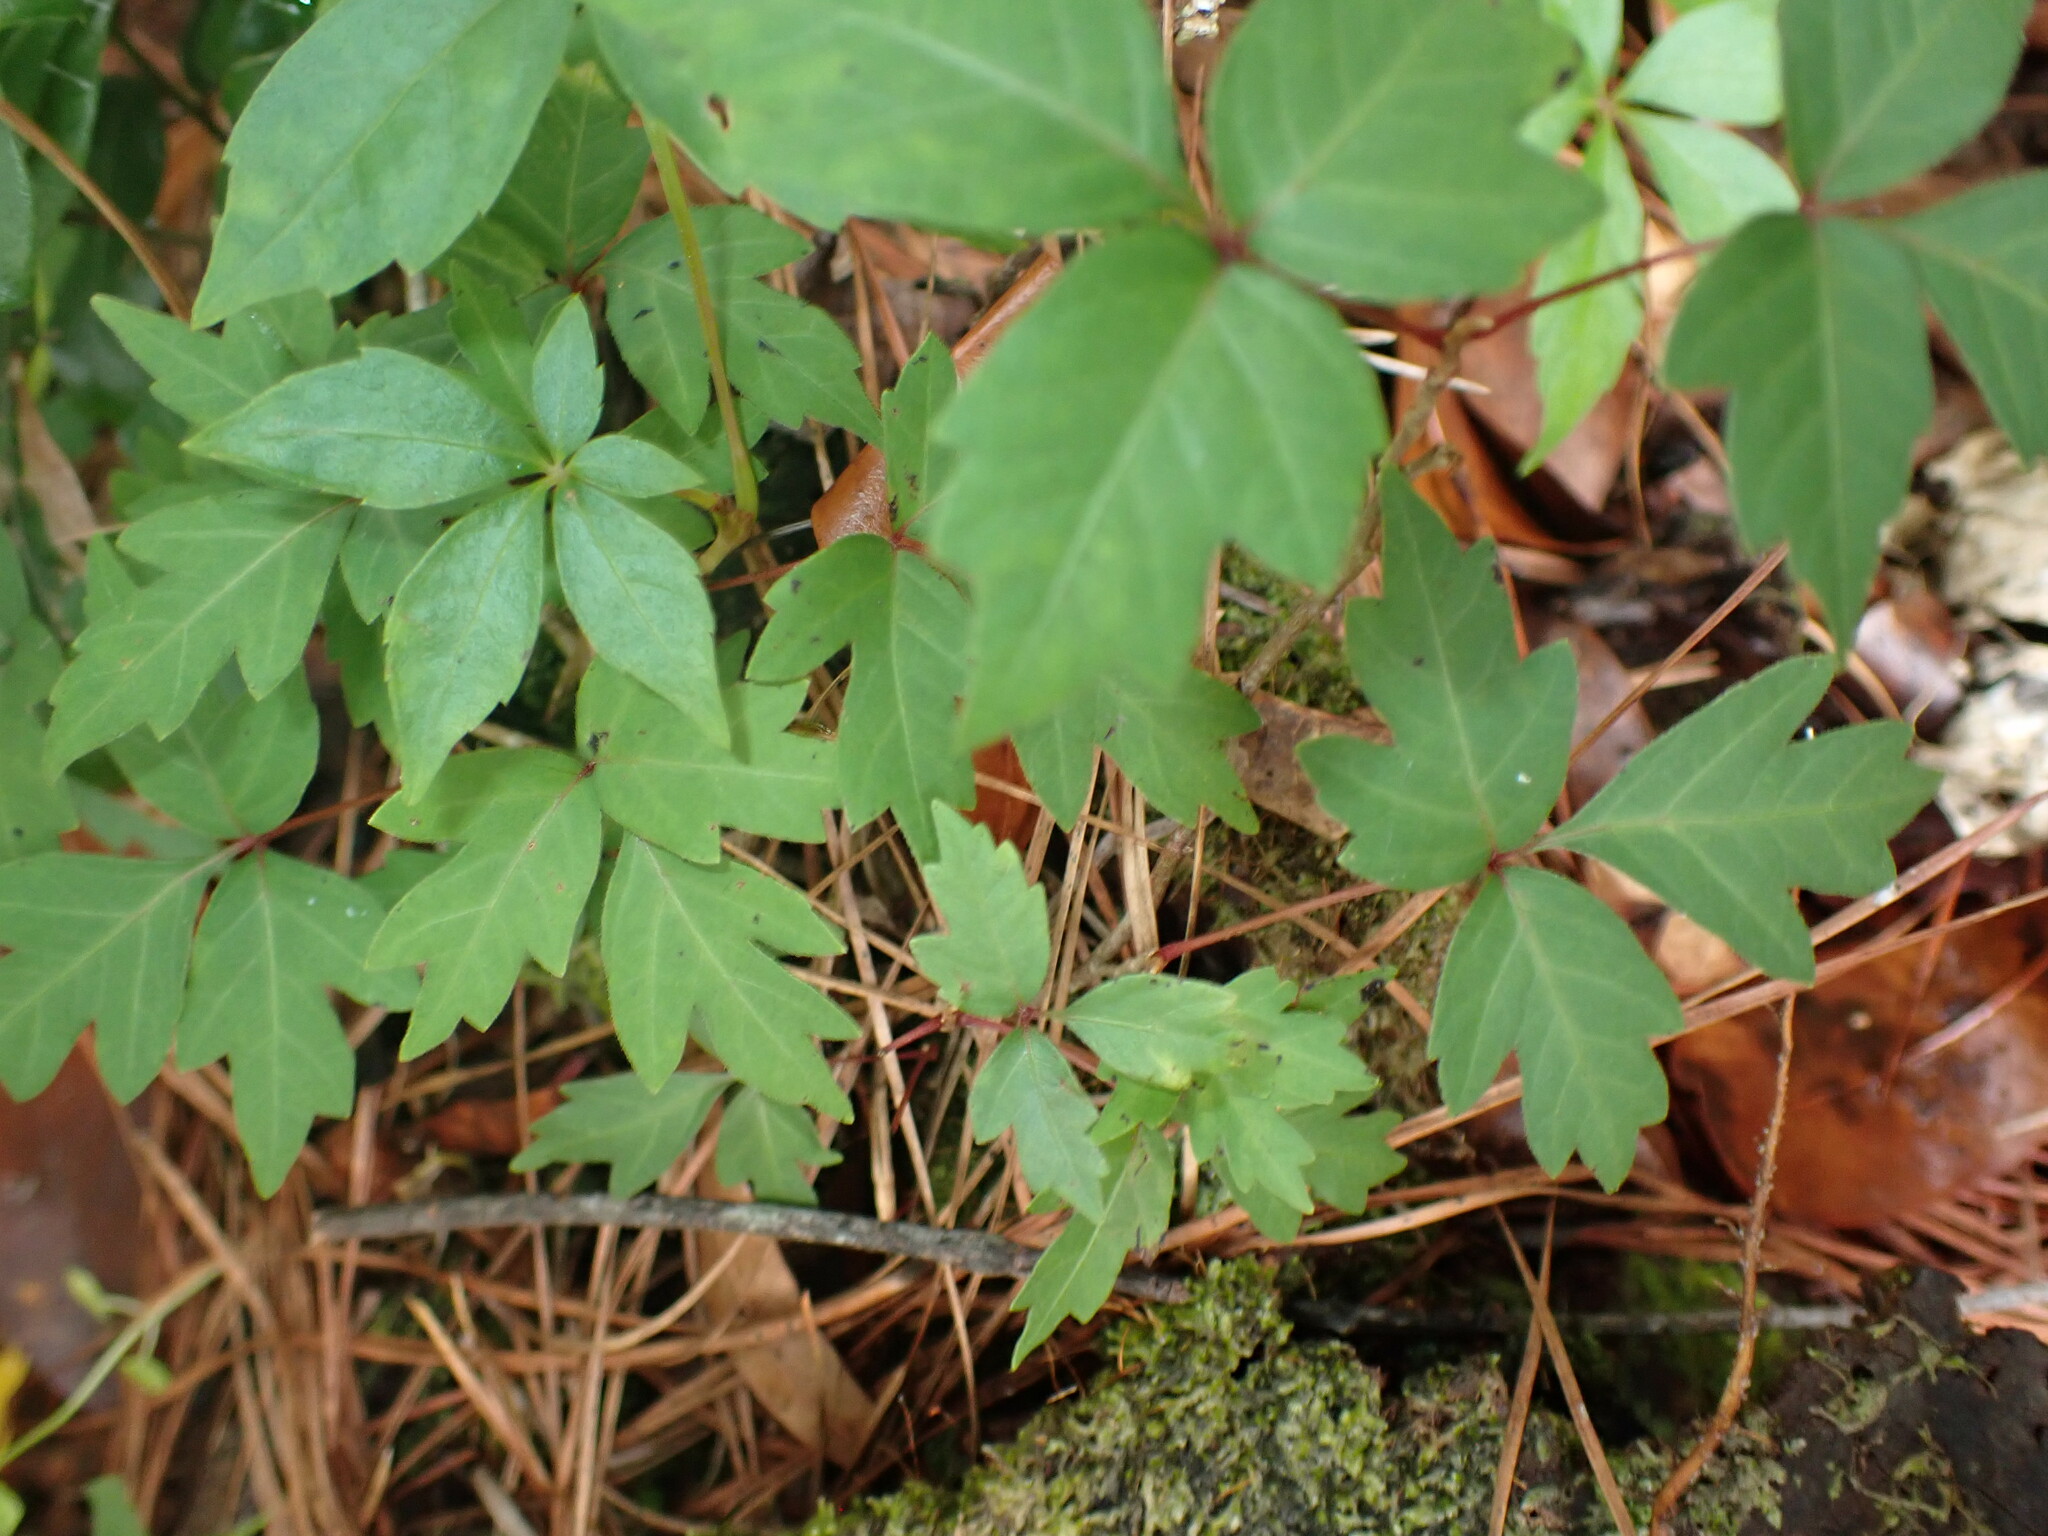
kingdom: Plantae
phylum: Tracheophyta
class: Magnoliopsida
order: Sapindales
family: Anacardiaceae
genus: Toxicodendron
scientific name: Toxicodendron radicans
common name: Poison ivy
